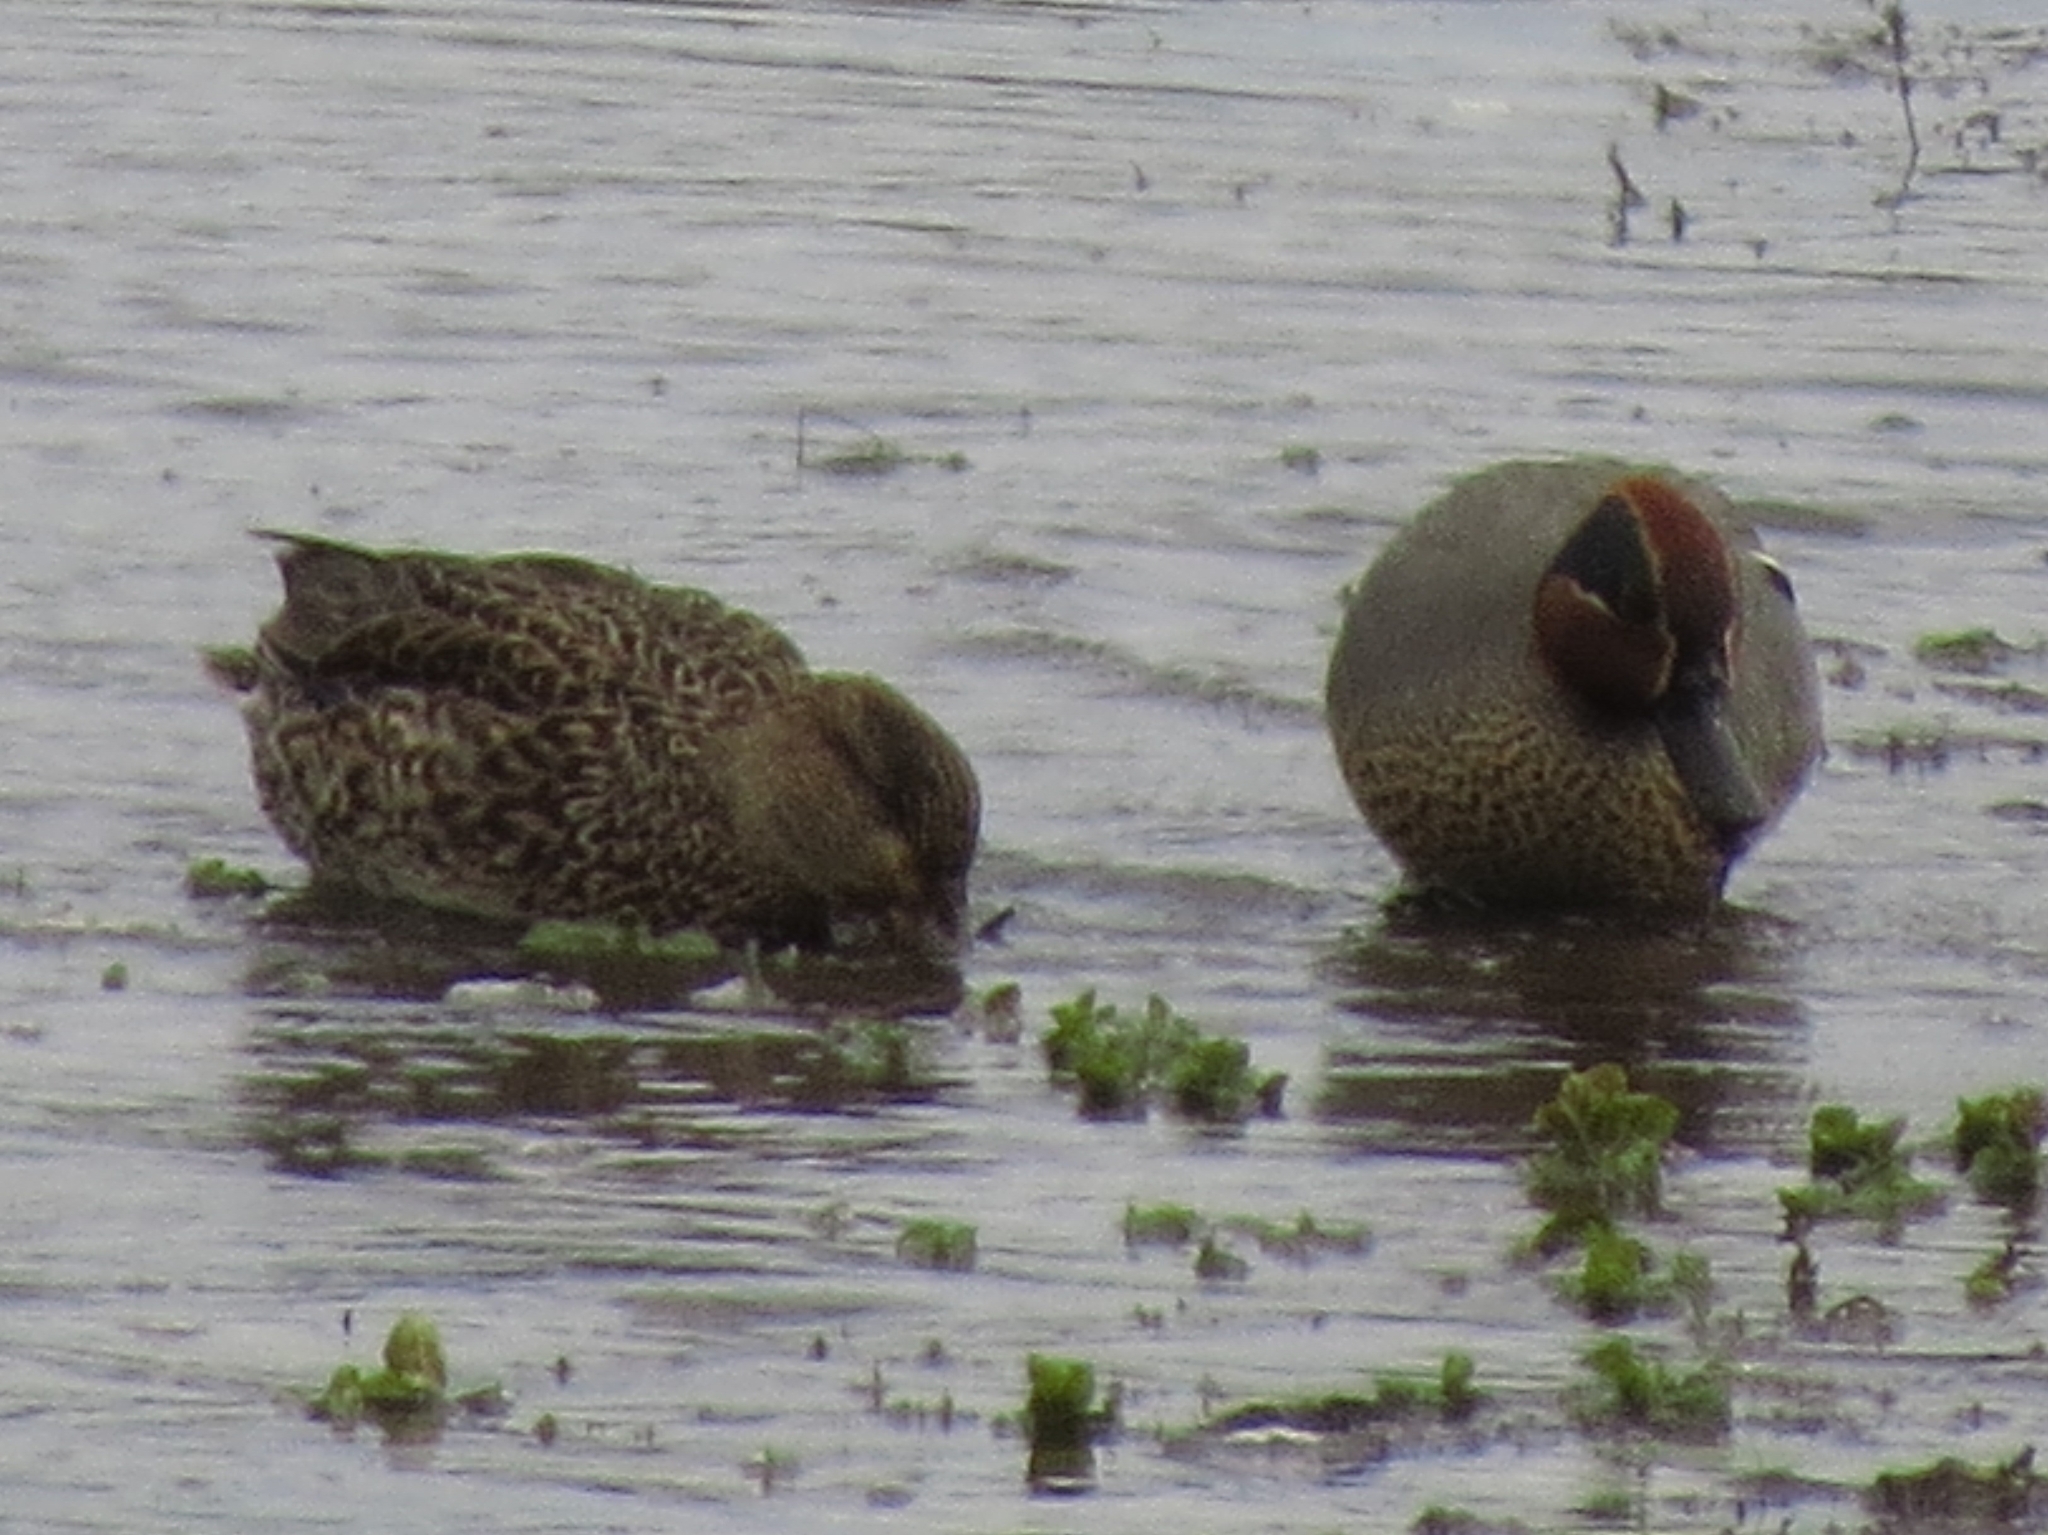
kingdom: Animalia
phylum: Chordata
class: Aves
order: Anseriformes
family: Anatidae
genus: Anas
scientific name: Anas crecca
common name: Eurasian teal
